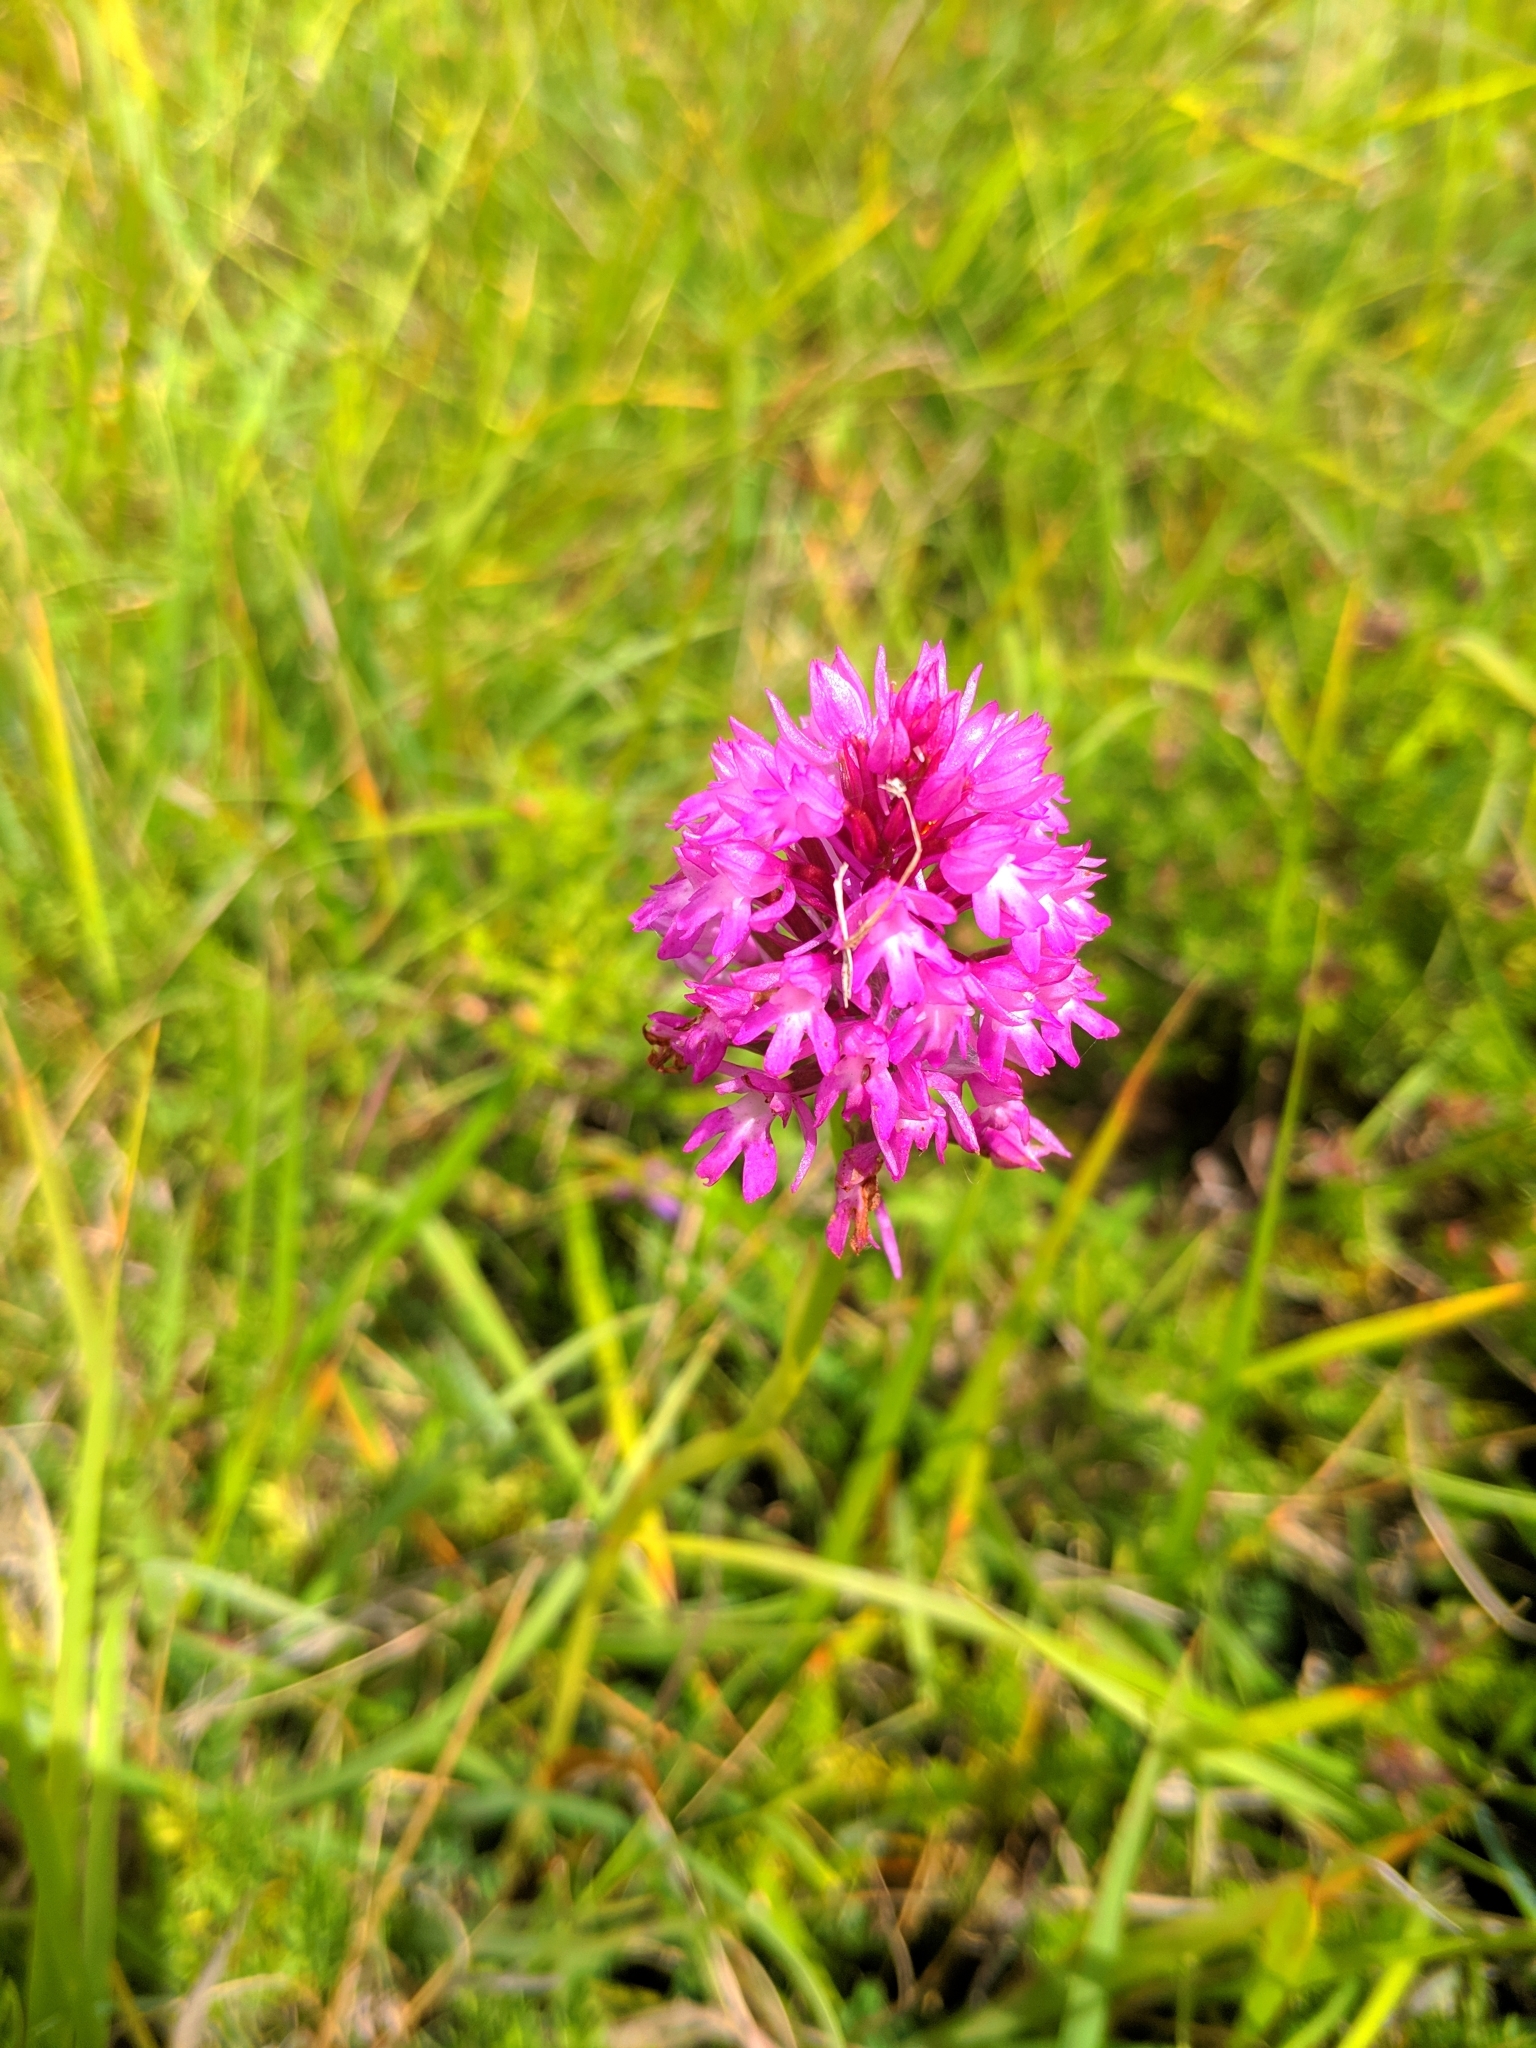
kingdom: Plantae
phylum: Tracheophyta
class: Liliopsida
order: Asparagales
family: Orchidaceae
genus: Anacamptis
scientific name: Anacamptis pyramidalis
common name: Pyramidal orchid
